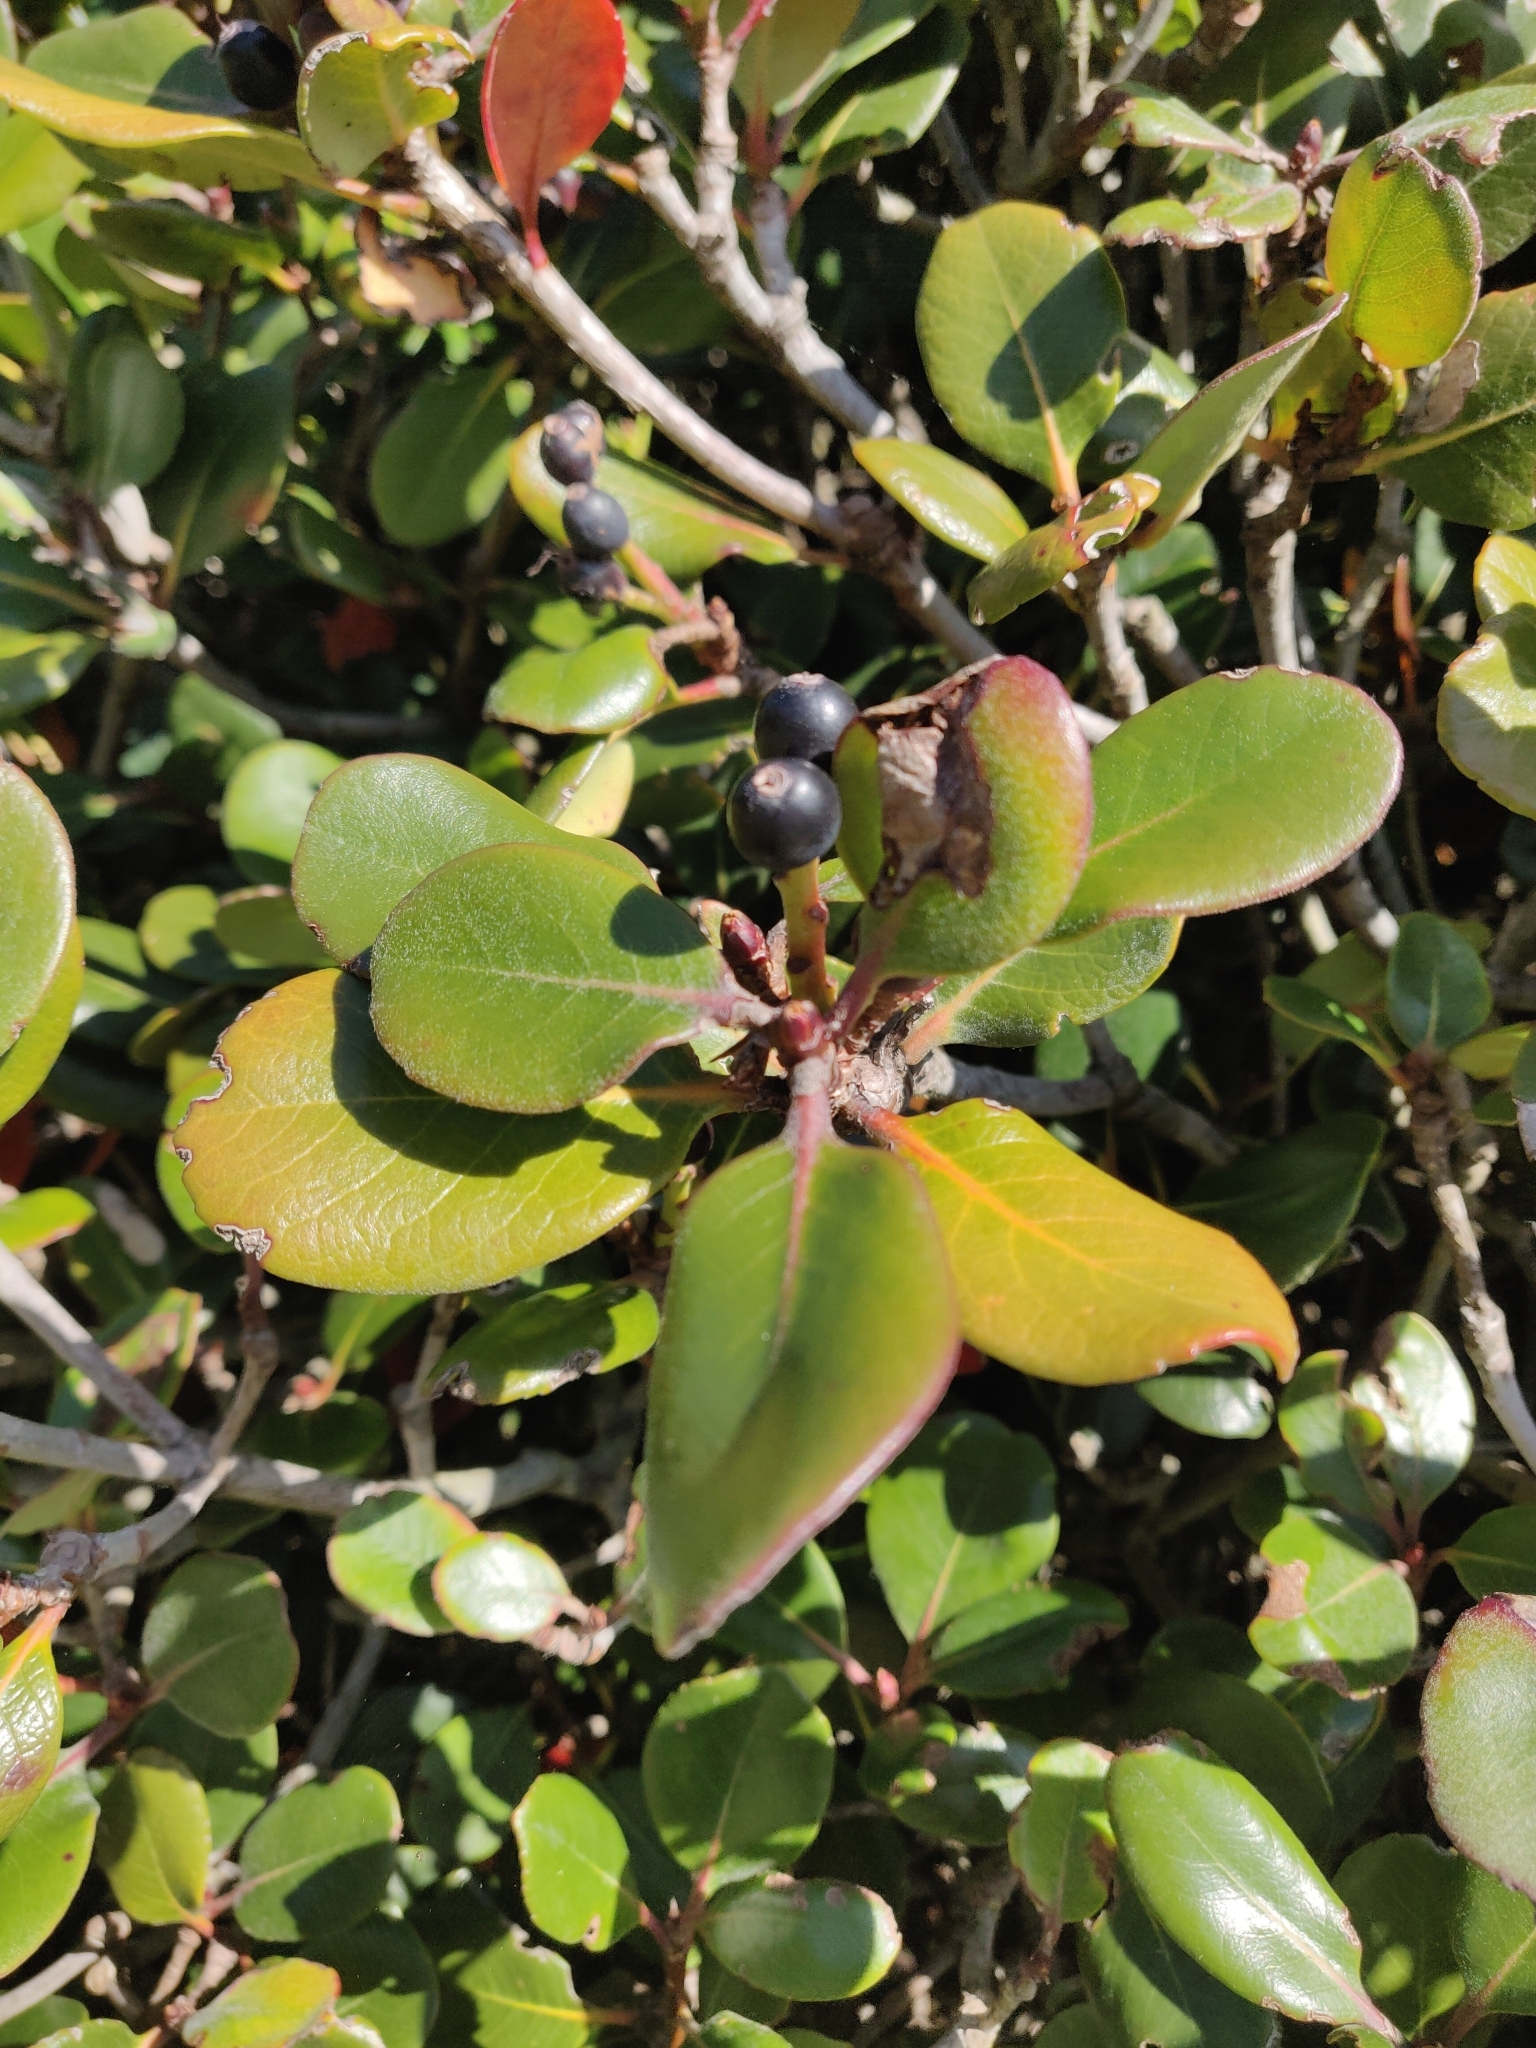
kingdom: Plantae
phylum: Tracheophyta
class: Magnoliopsida
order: Rosales
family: Rosaceae
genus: Rhaphiolepis
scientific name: Rhaphiolepis indica
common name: India-hawthorn
